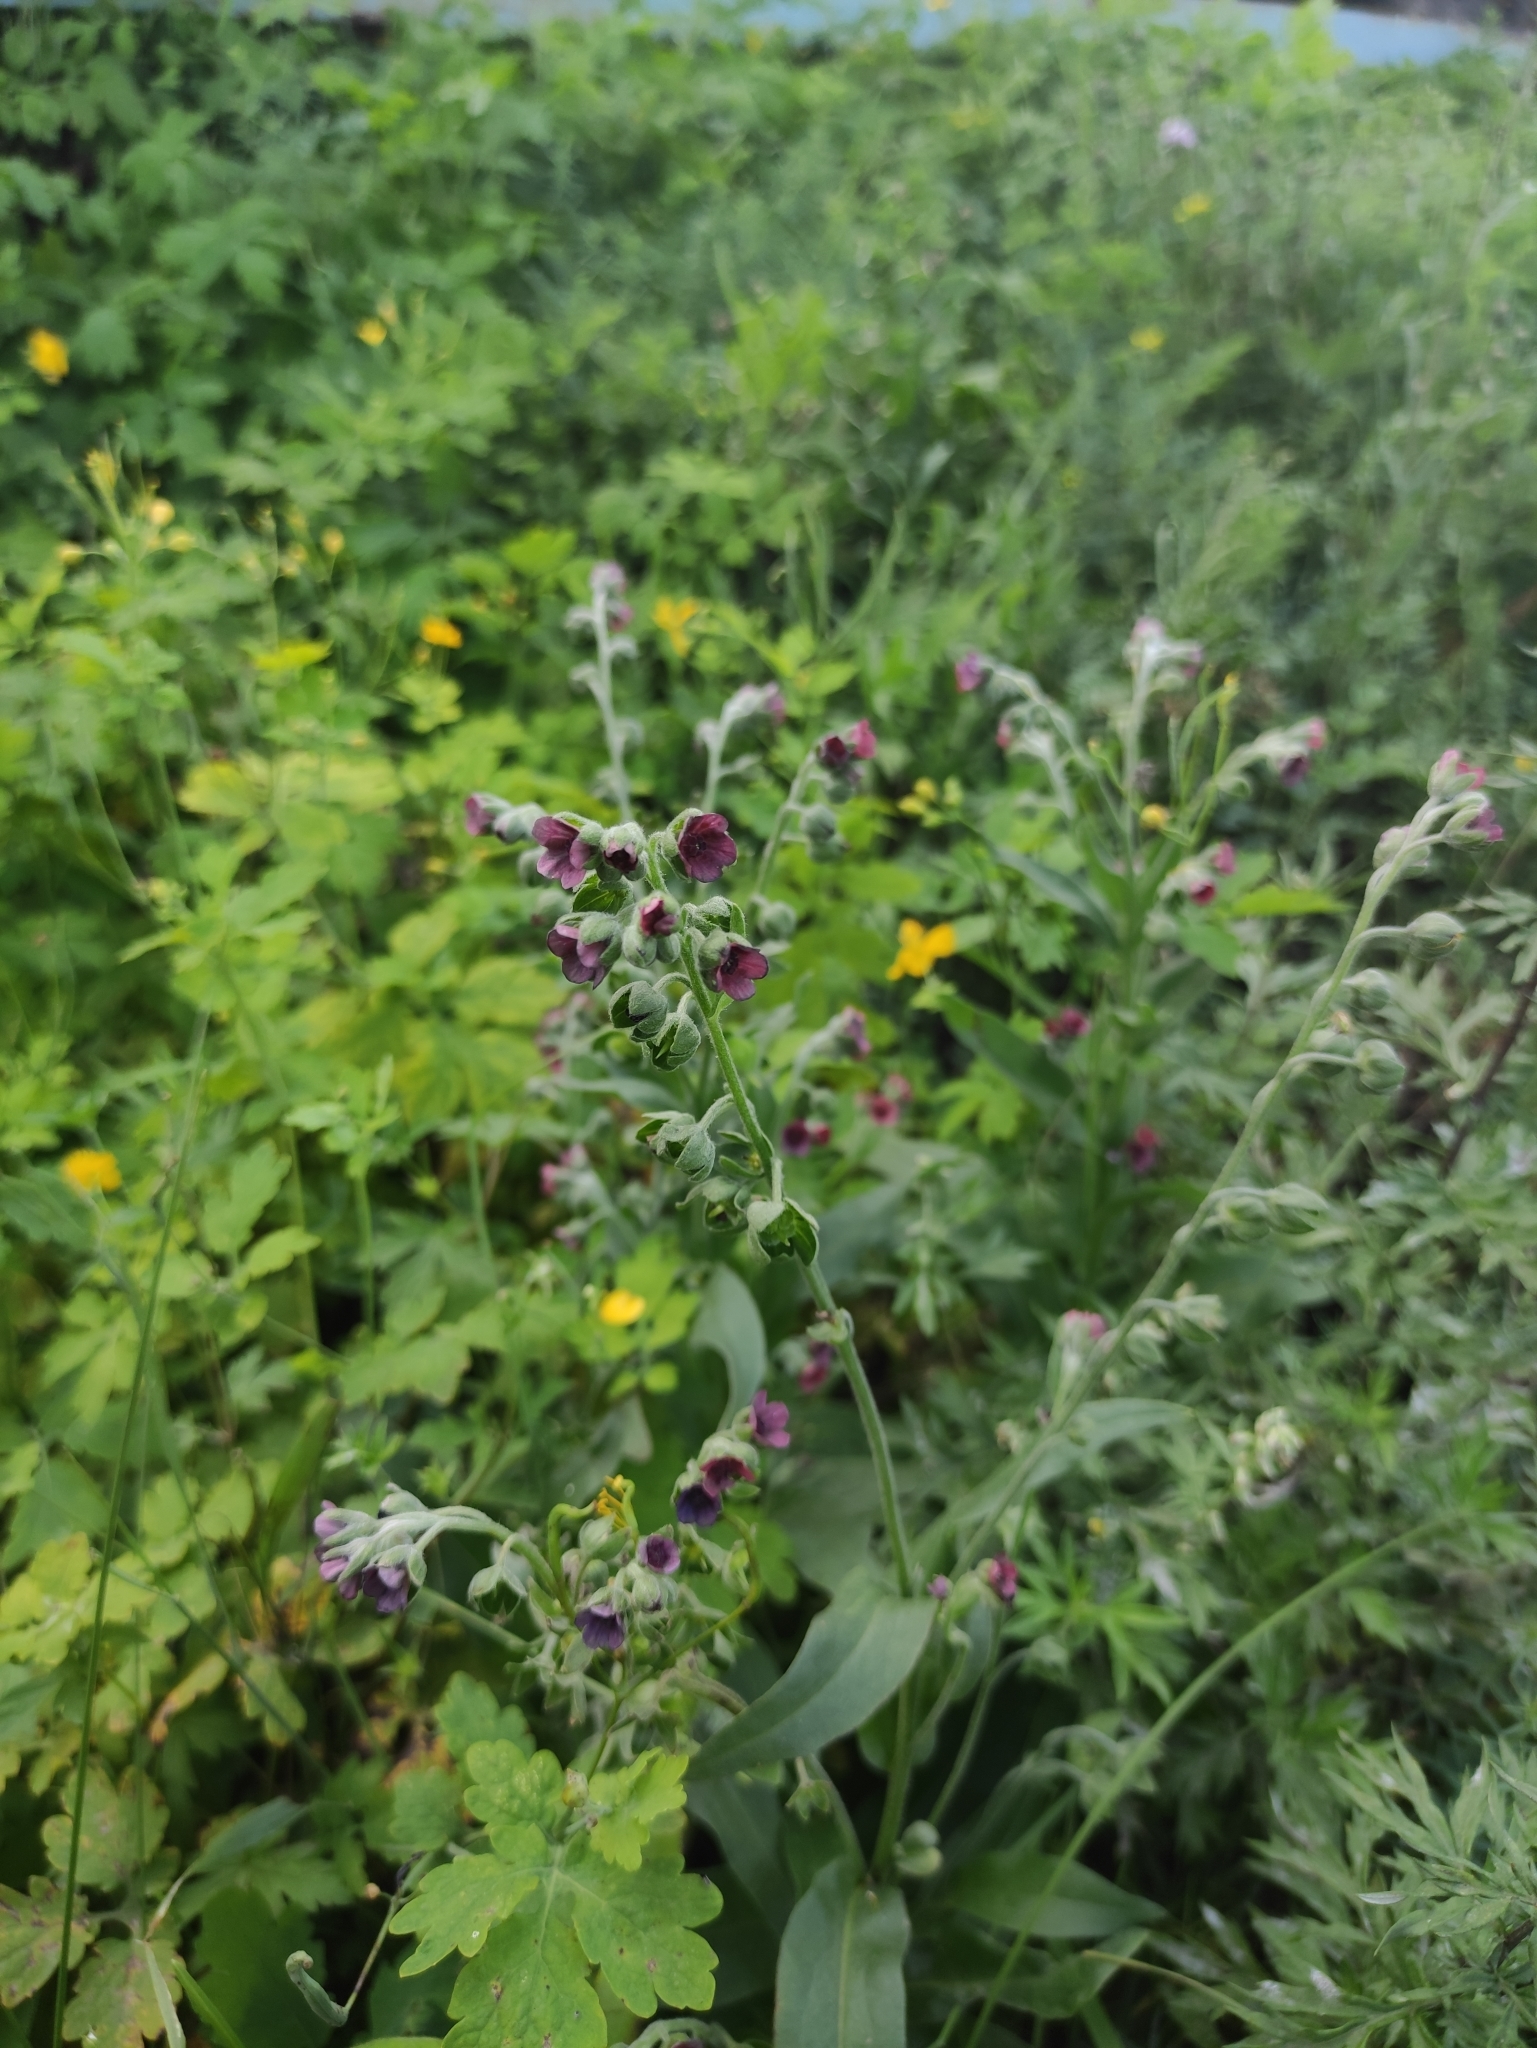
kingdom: Plantae
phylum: Tracheophyta
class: Magnoliopsida
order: Boraginales
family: Boraginaceae
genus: Cynoglossum
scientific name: Cynoglossum officinale
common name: Hound's-tongue
